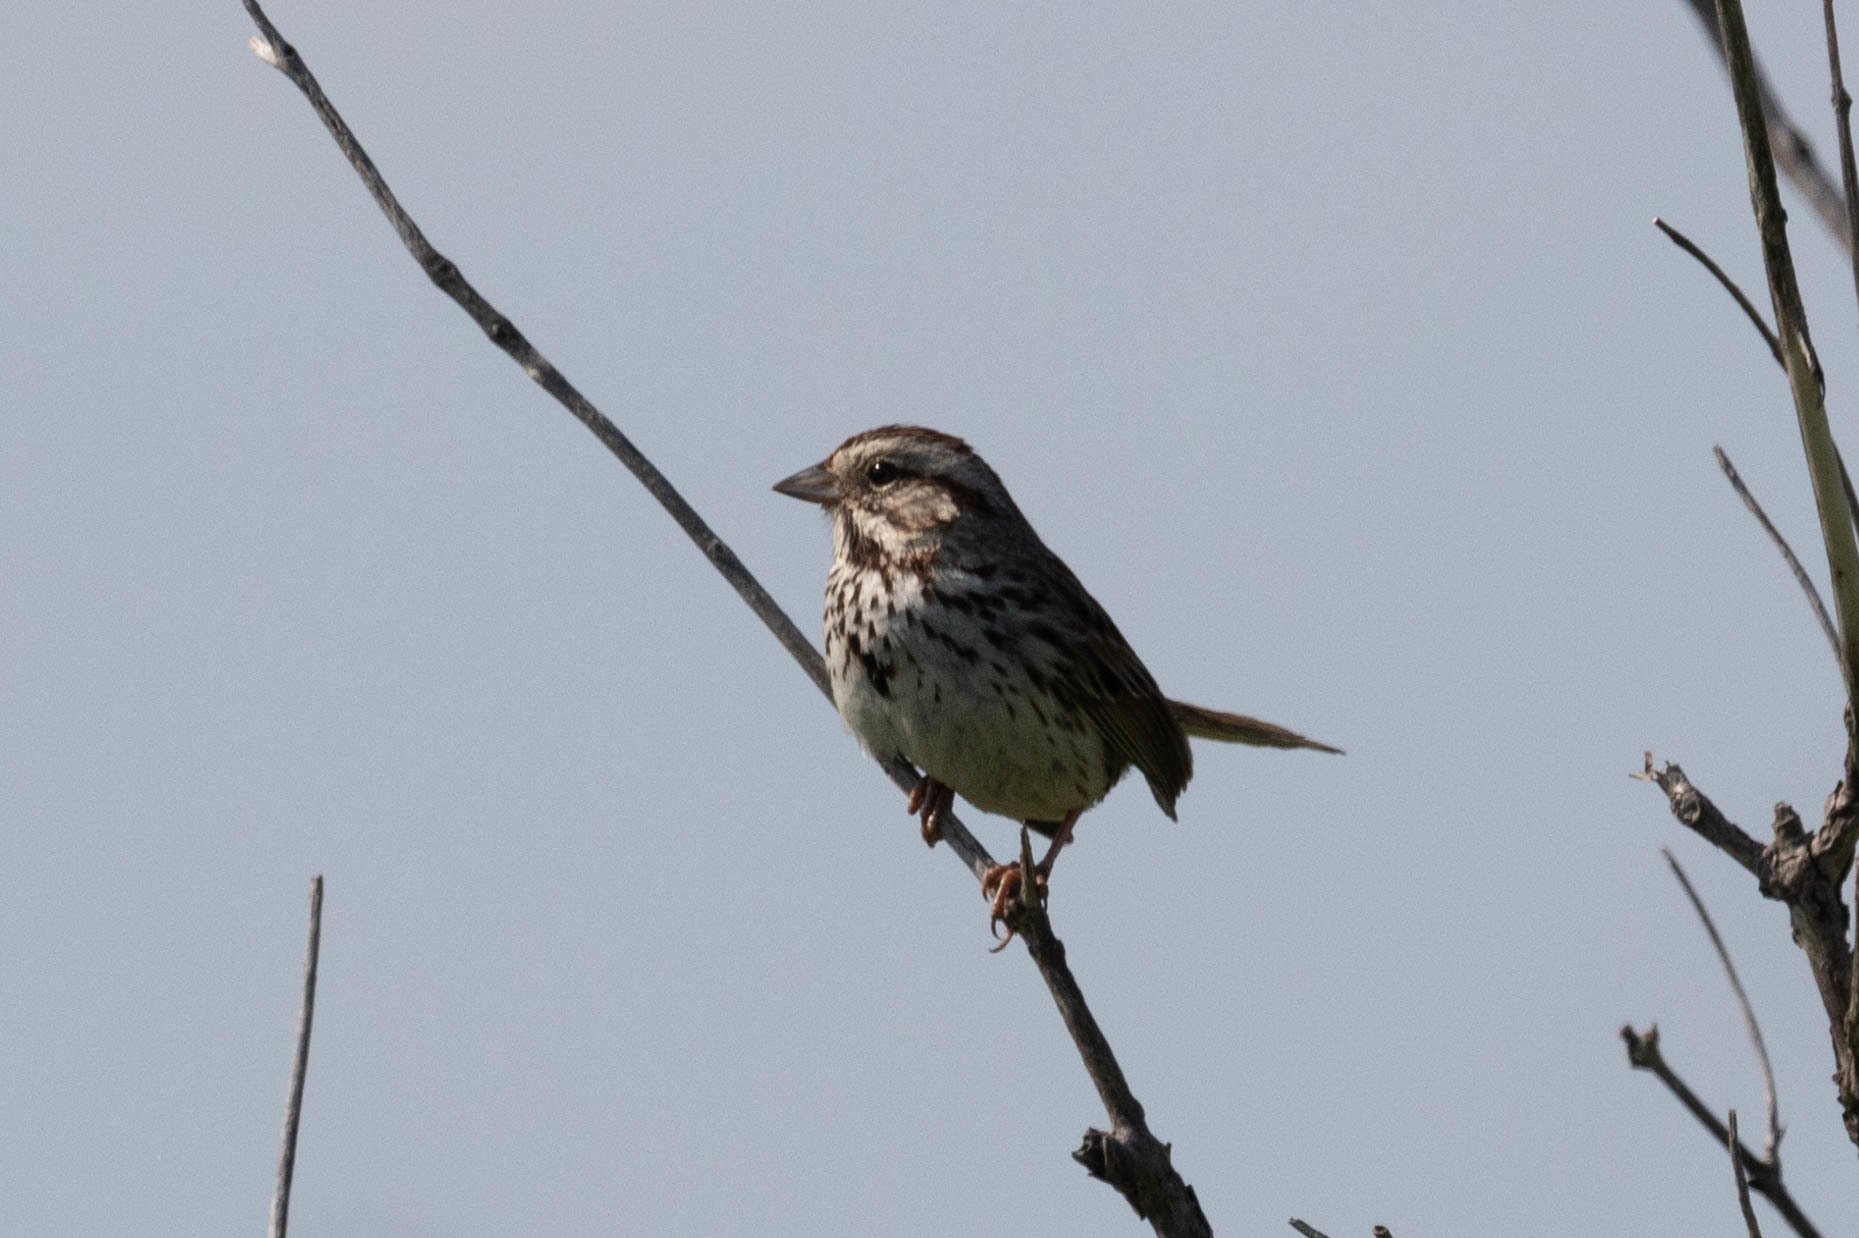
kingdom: Animalia
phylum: Chordata
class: Aves
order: Passeriformes
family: Passerellidae
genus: Melospiza
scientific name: Melospiza melodia
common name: Song sparrow
